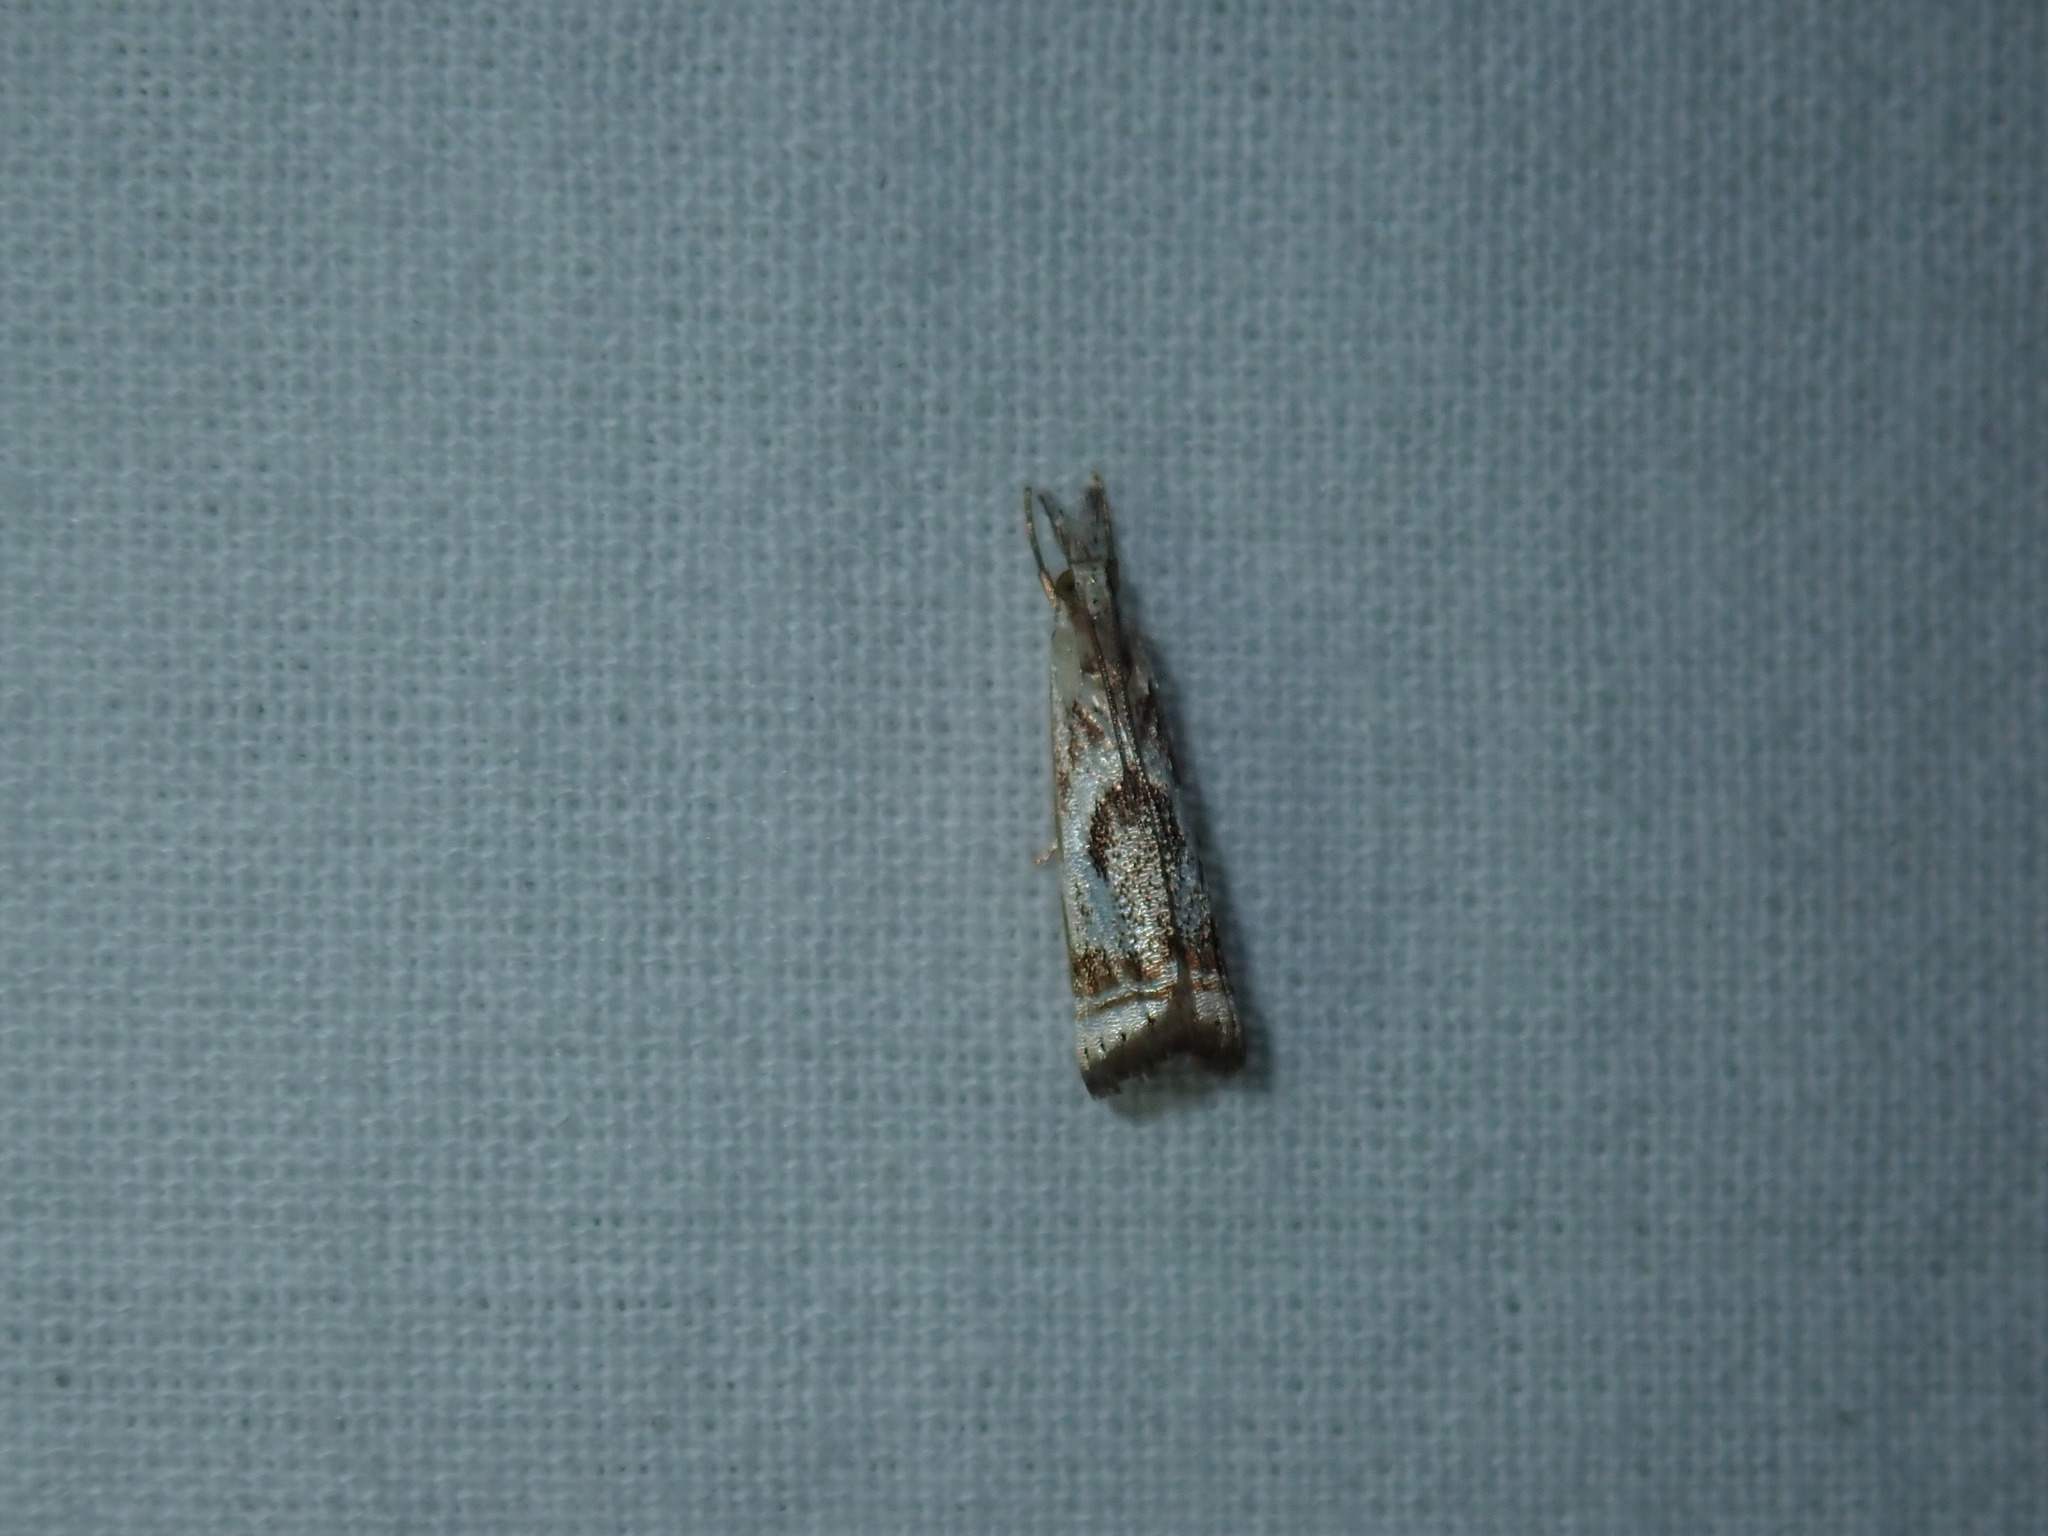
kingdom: Animalia
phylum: Arthropoda
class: Insecta
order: Lepidoptera
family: Crambidae
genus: Microcrambus
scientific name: Microcrambus elegans
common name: Elegant grass-veneer
